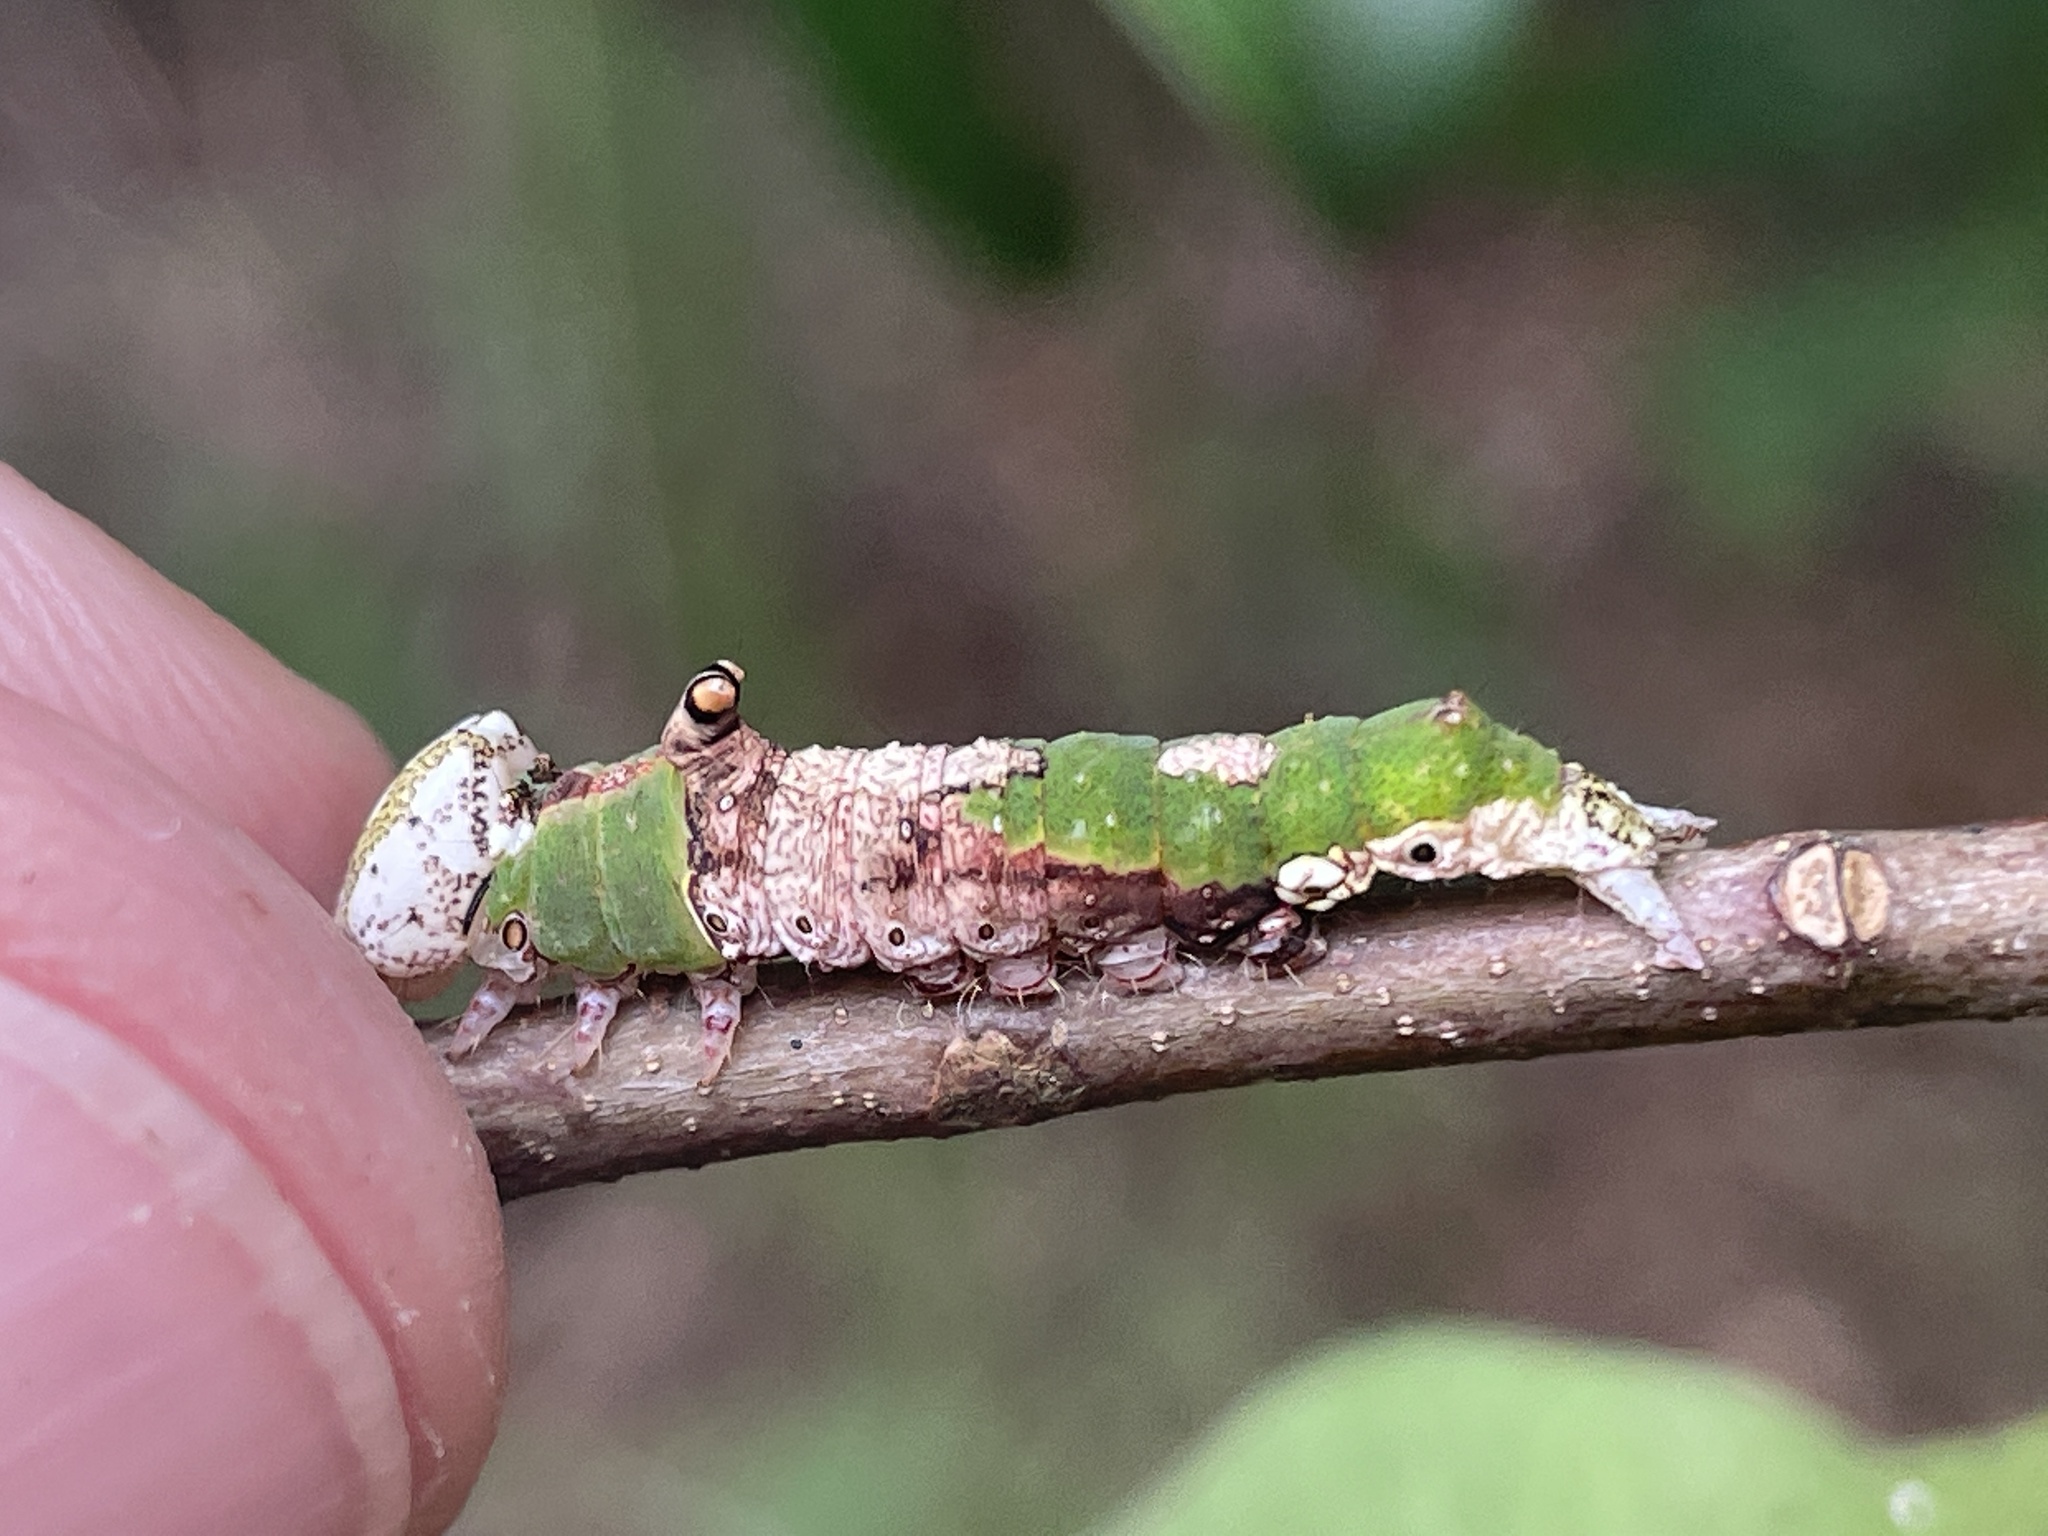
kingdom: Animalia
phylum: Arthropoda
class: Insecta
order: Lepidoptera
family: Notodontidae
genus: Oligocentria
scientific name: Oligocentria Ianassa lignicolor
